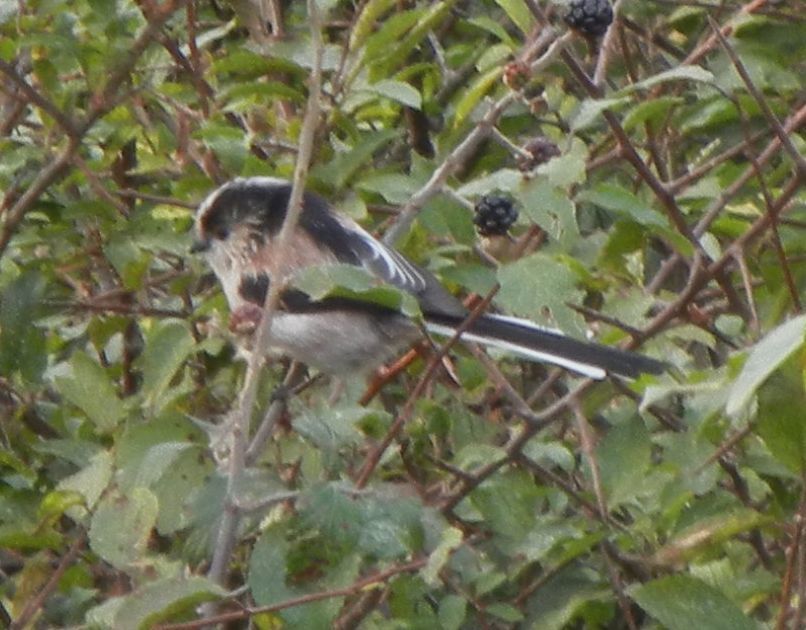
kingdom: Animalia
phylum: Chordata
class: Aves
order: Passeriformes
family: Aegithalidae
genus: Aegithalos
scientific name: Aegithalos caudatus
